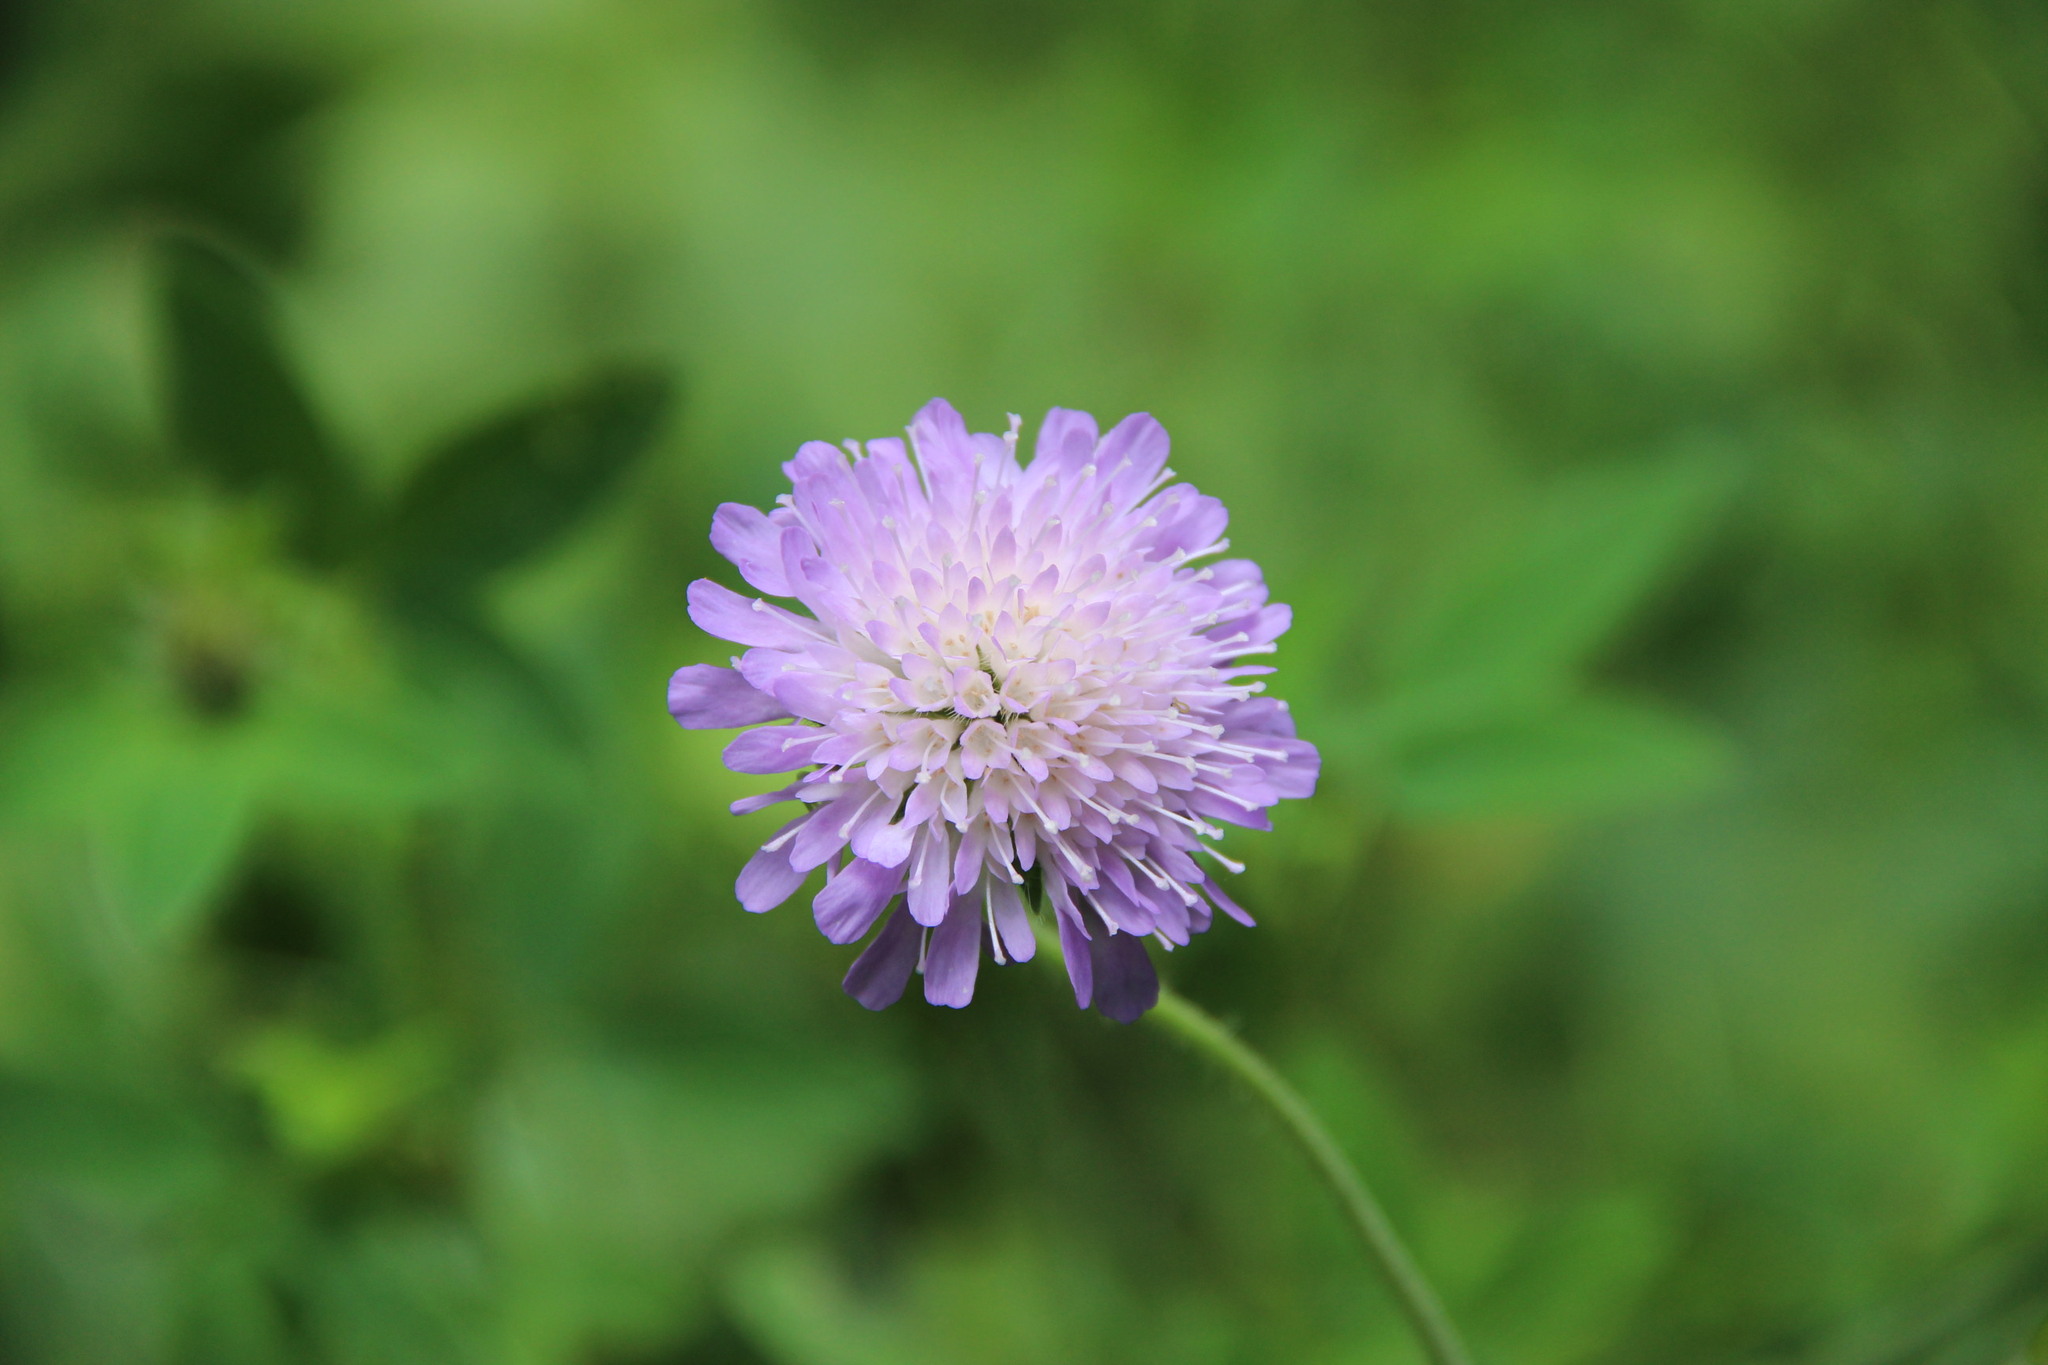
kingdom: Plantae
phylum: Tracheophyta
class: Magnoliopsida
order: Dipsacales
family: Caprifoliaceae
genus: Knautia
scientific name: Knautia arvensis
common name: Field scabiosa
